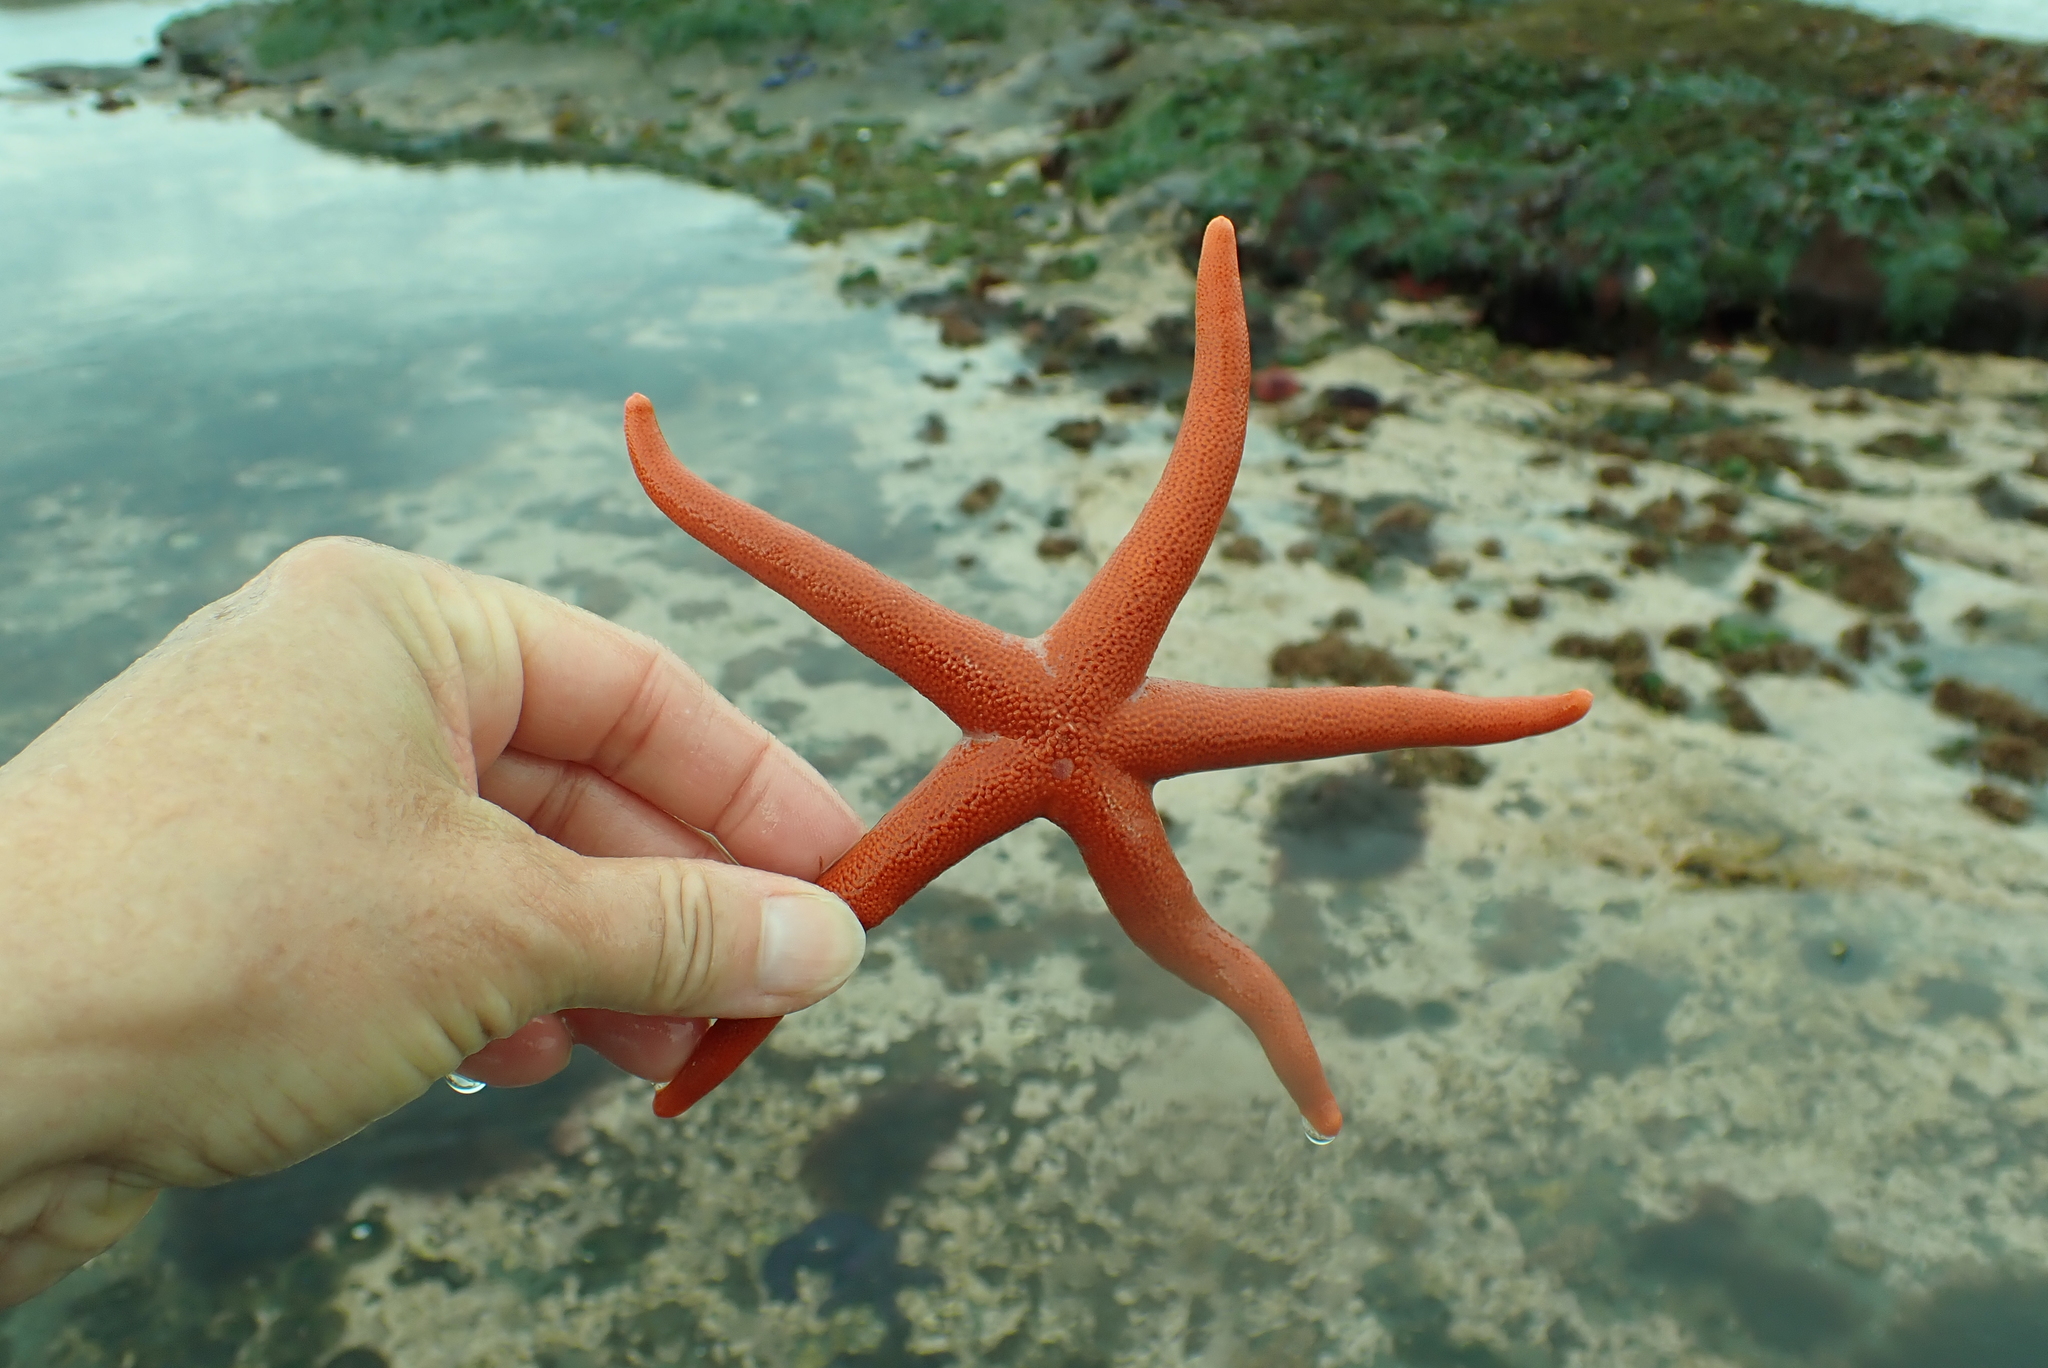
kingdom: Animalia
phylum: Echinodermata
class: Asteroidea
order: Spinulosida
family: Echinasteridae
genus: Henricia
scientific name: Henricia leviuscula
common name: Pacific blood star
